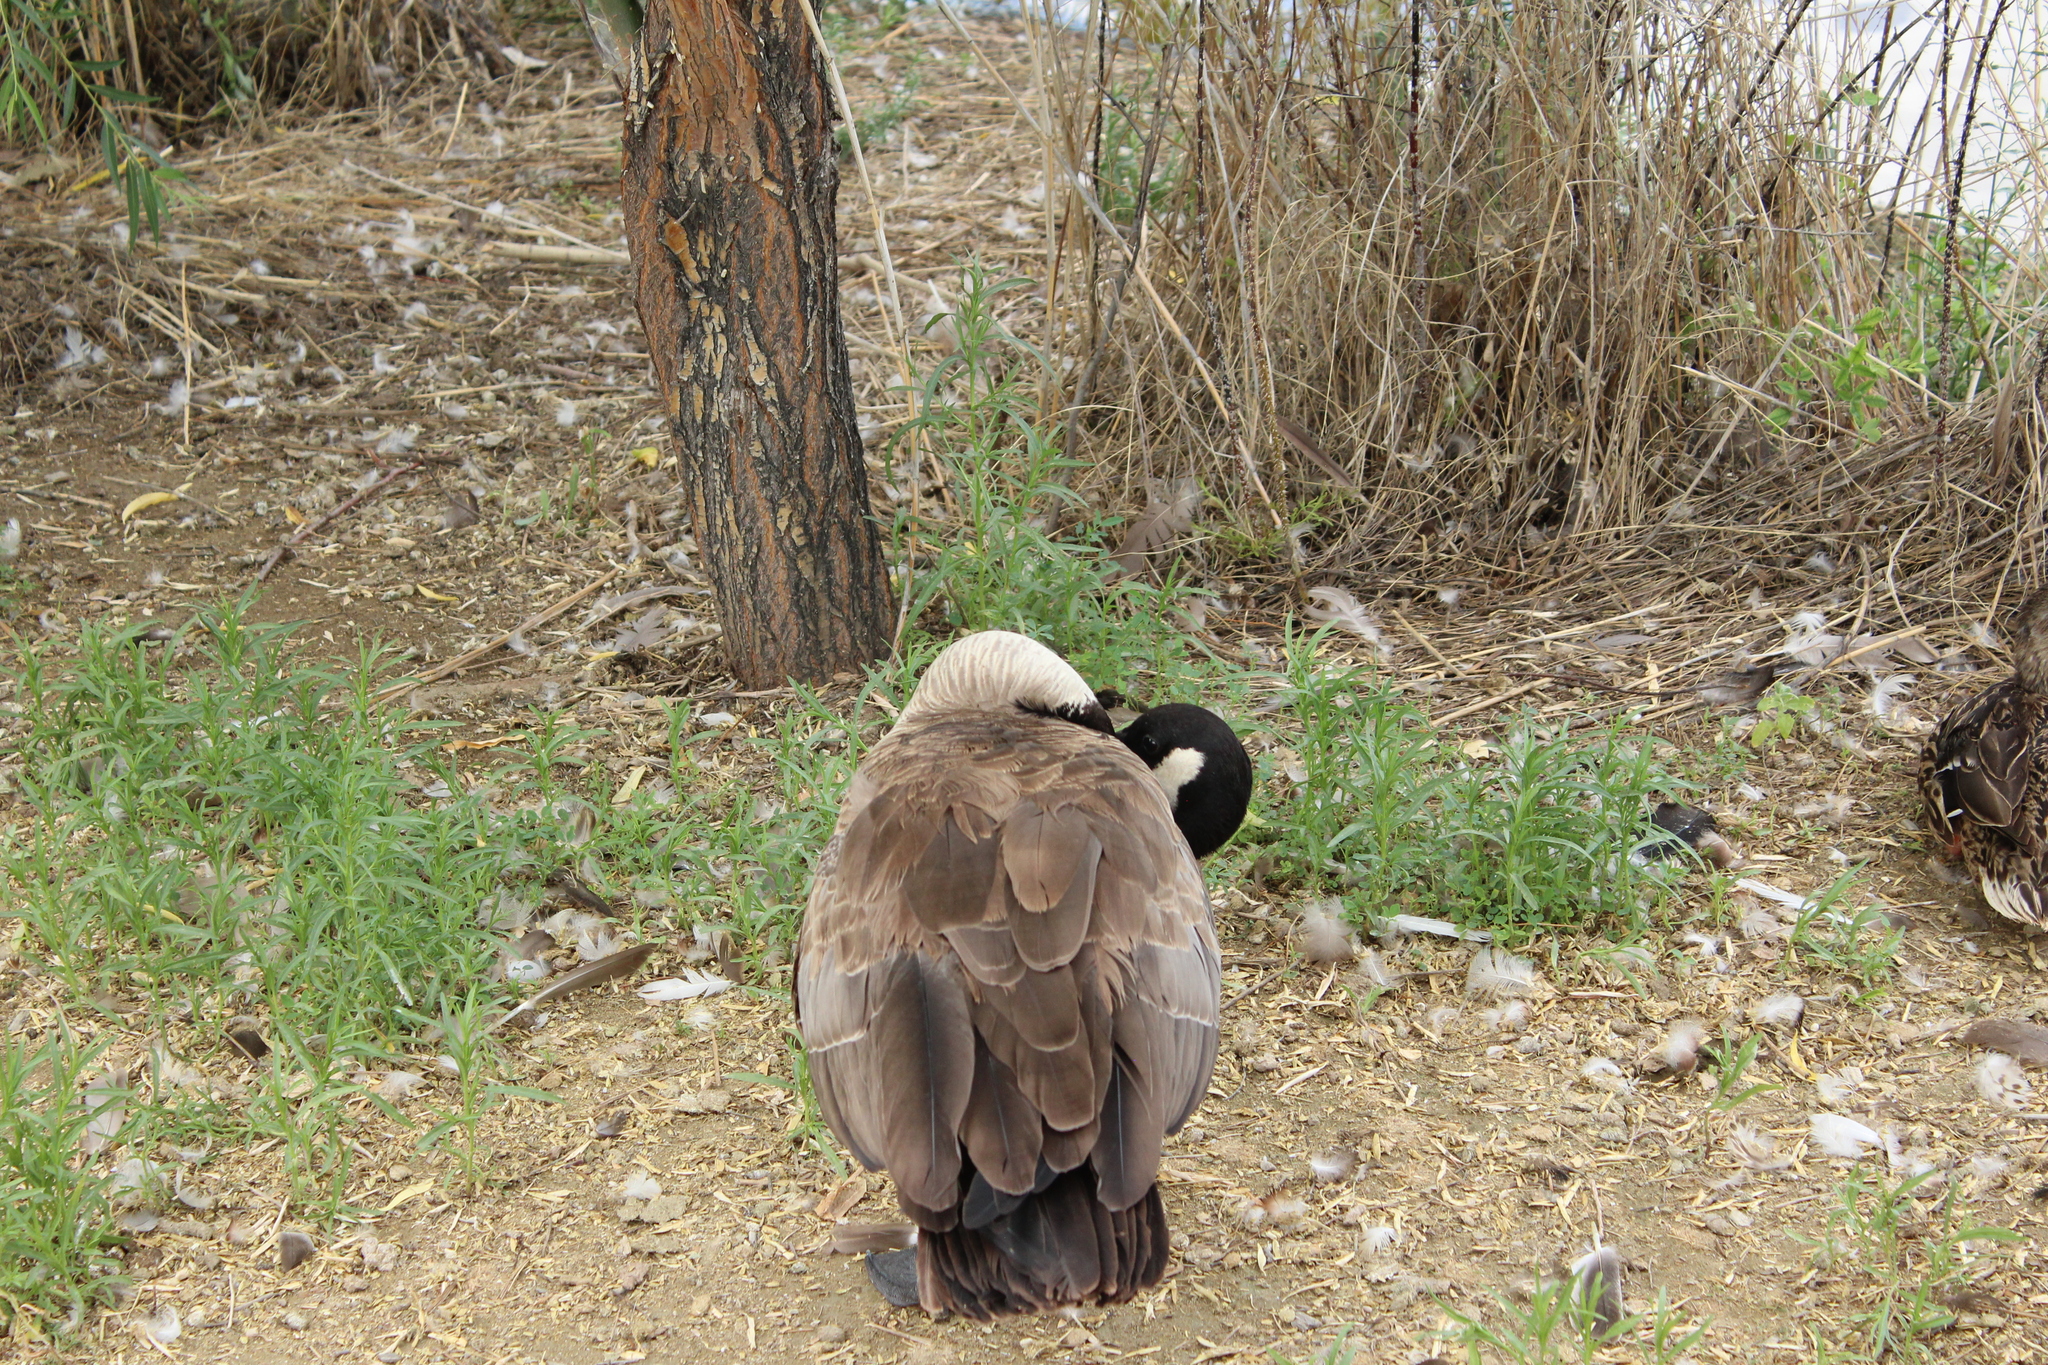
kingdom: Animalia
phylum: Chordata
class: Aves
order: Anseriformes
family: Anatidae
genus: Branta
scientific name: Branta canadensis
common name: Canada goose
